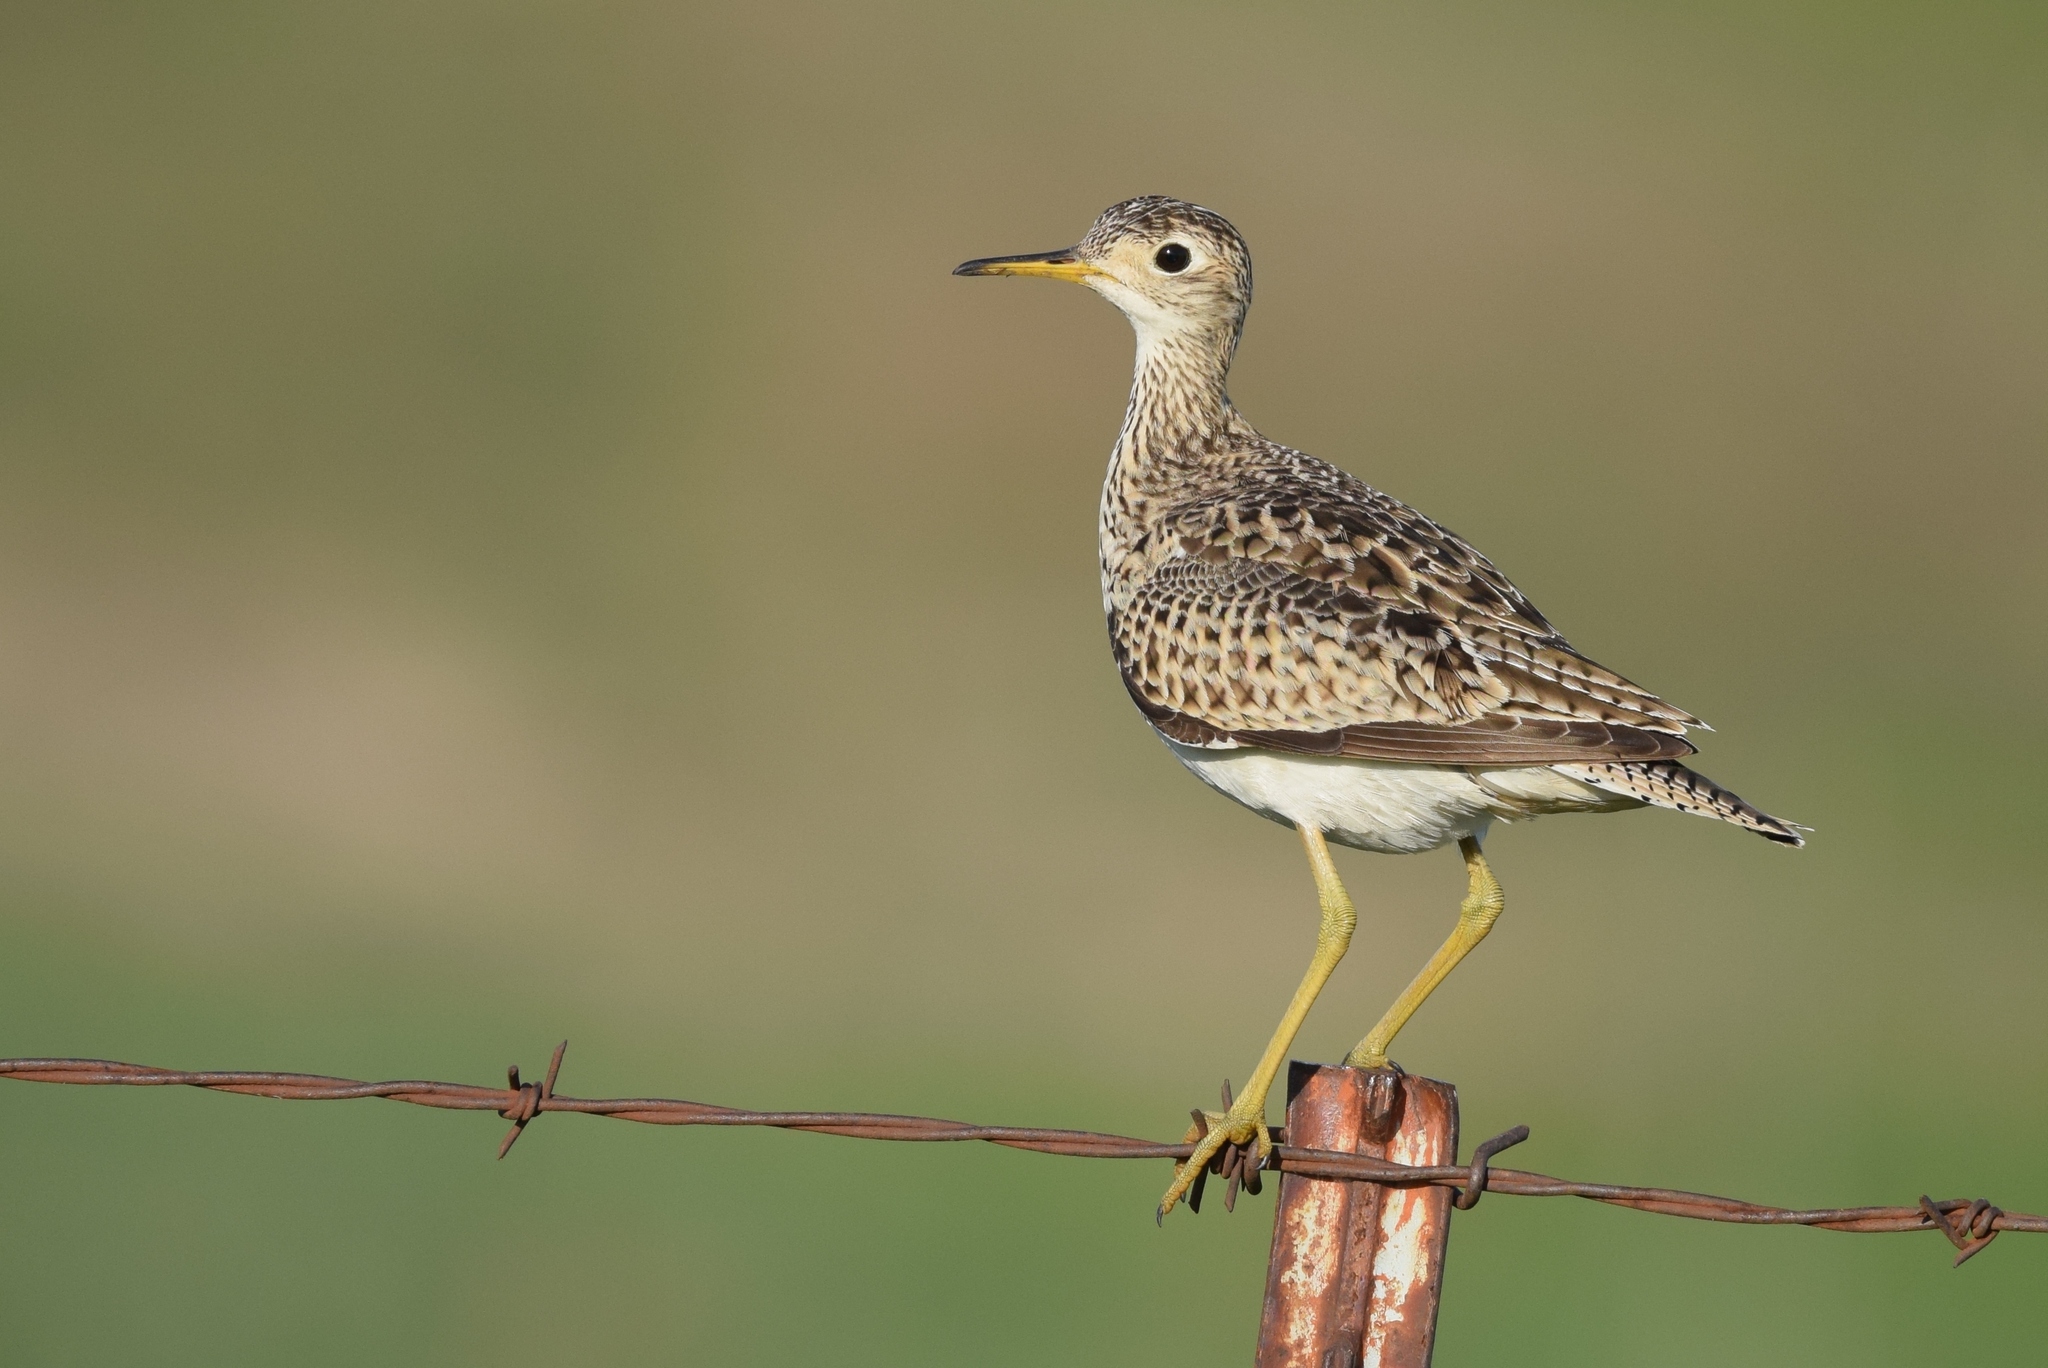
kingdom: Animalia
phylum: Chordata
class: Aves
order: Charadriiformes
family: Scolopacidae
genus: Bartramia
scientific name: Bartramia longicauda
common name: Upland sandpiper
